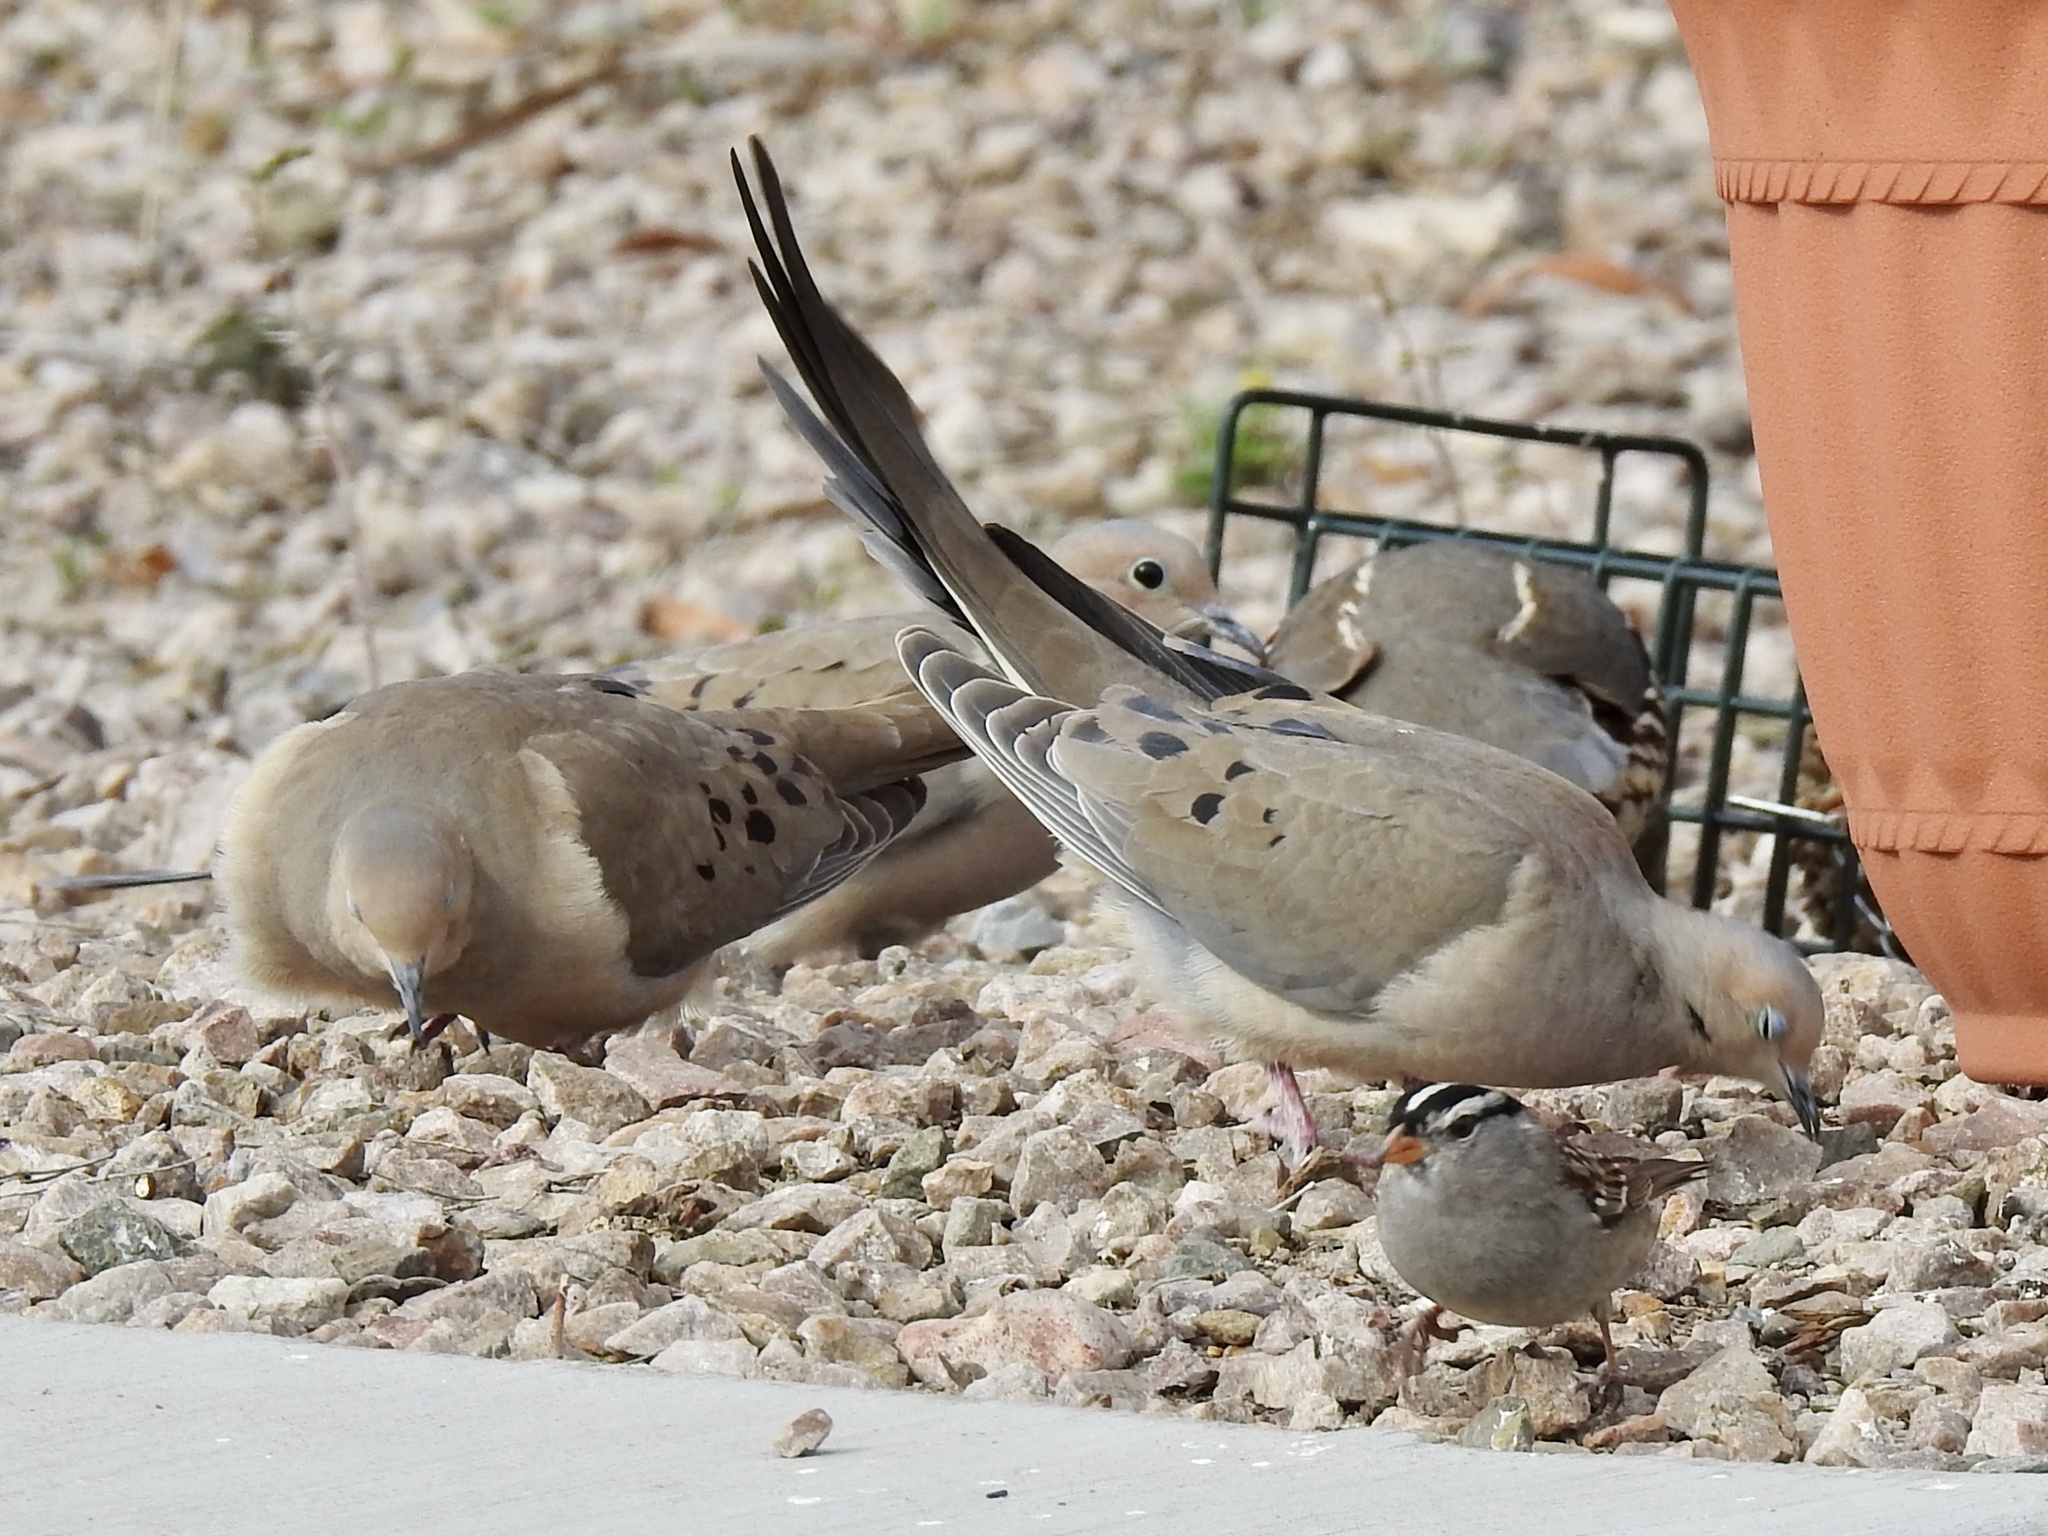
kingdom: Animalia
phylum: Chordata
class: Aves
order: Passeriformes
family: Passerellidae
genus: Zonotrichia
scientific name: Zonotrichia leucophrys
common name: White-crowned sparrow
